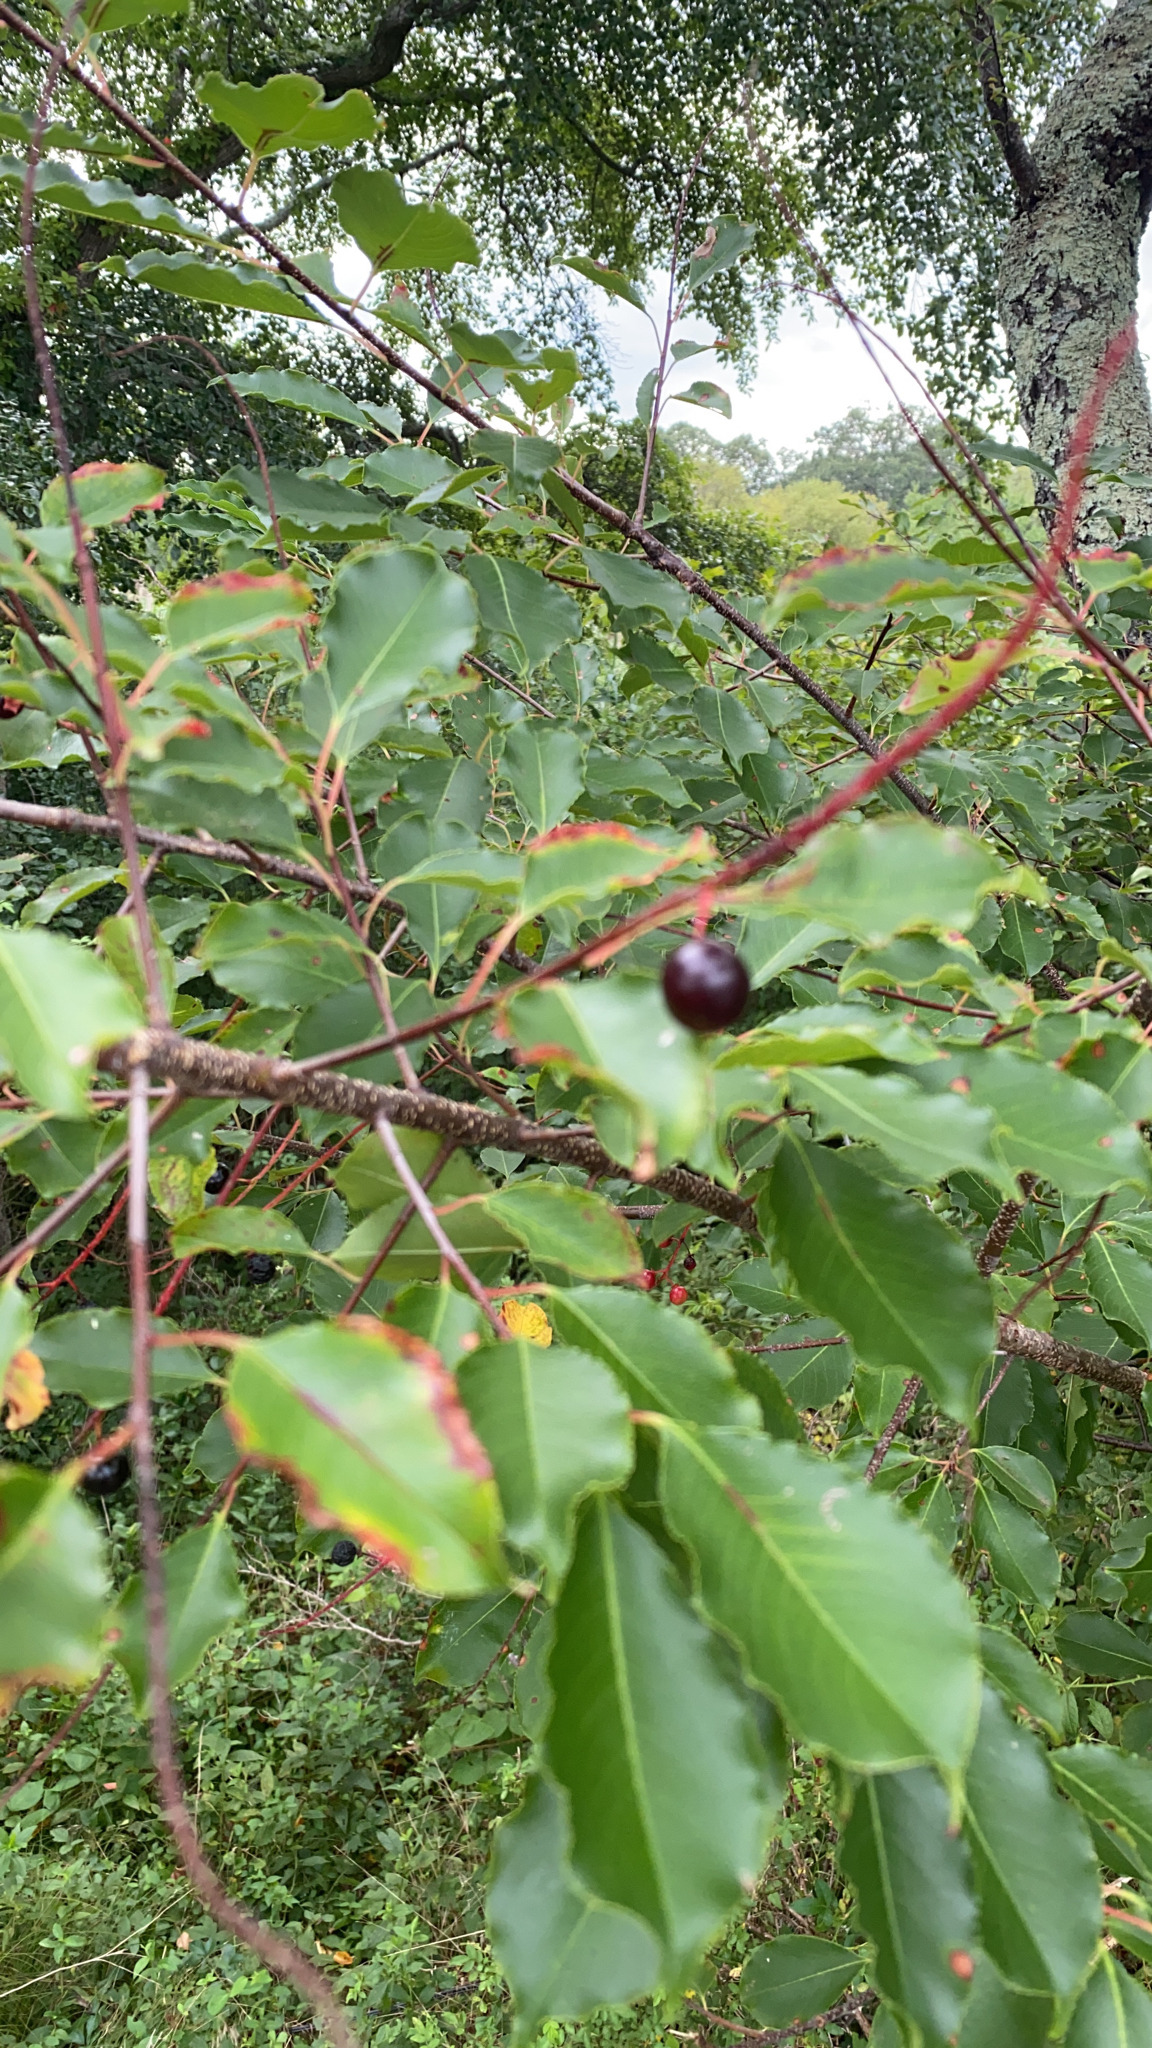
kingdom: Plantae
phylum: Tracheophyta
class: Magnoliopsida
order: Rosales
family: Rosaceae
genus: Prunus
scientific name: Prunus serotina
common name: Black cherry
